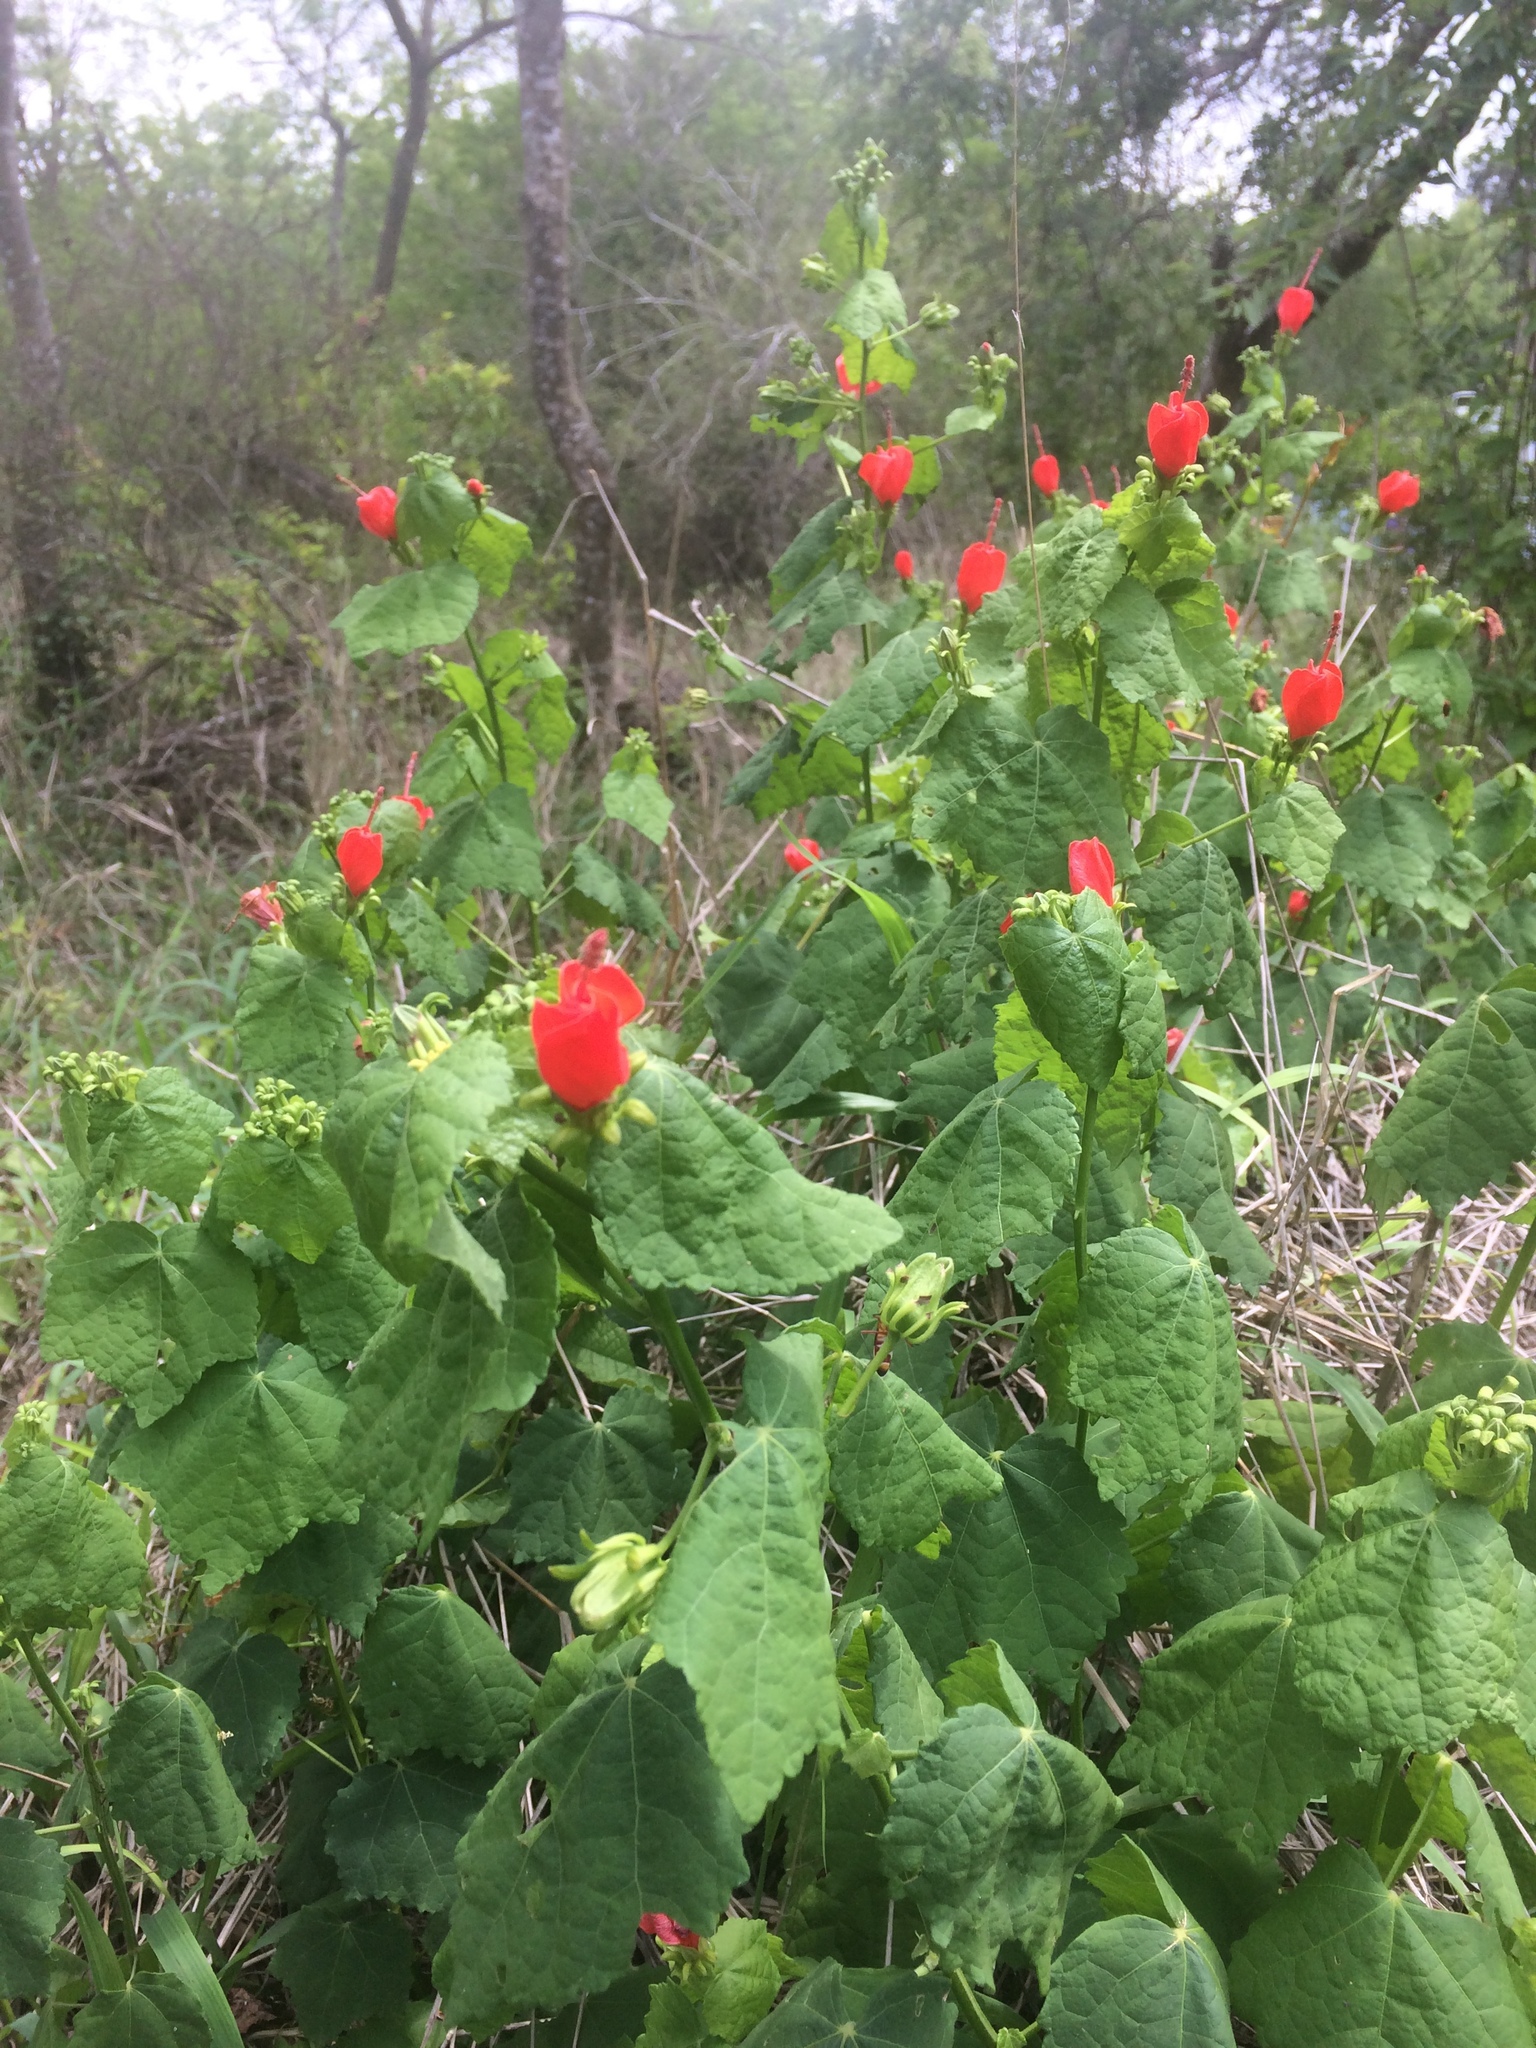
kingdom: Plantae
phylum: Tracheophyta
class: Magnoliopsida
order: Malvales
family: Malvaceae
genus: Malvaviscus
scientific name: Malvaviscus arboreus
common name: Wax mallow
